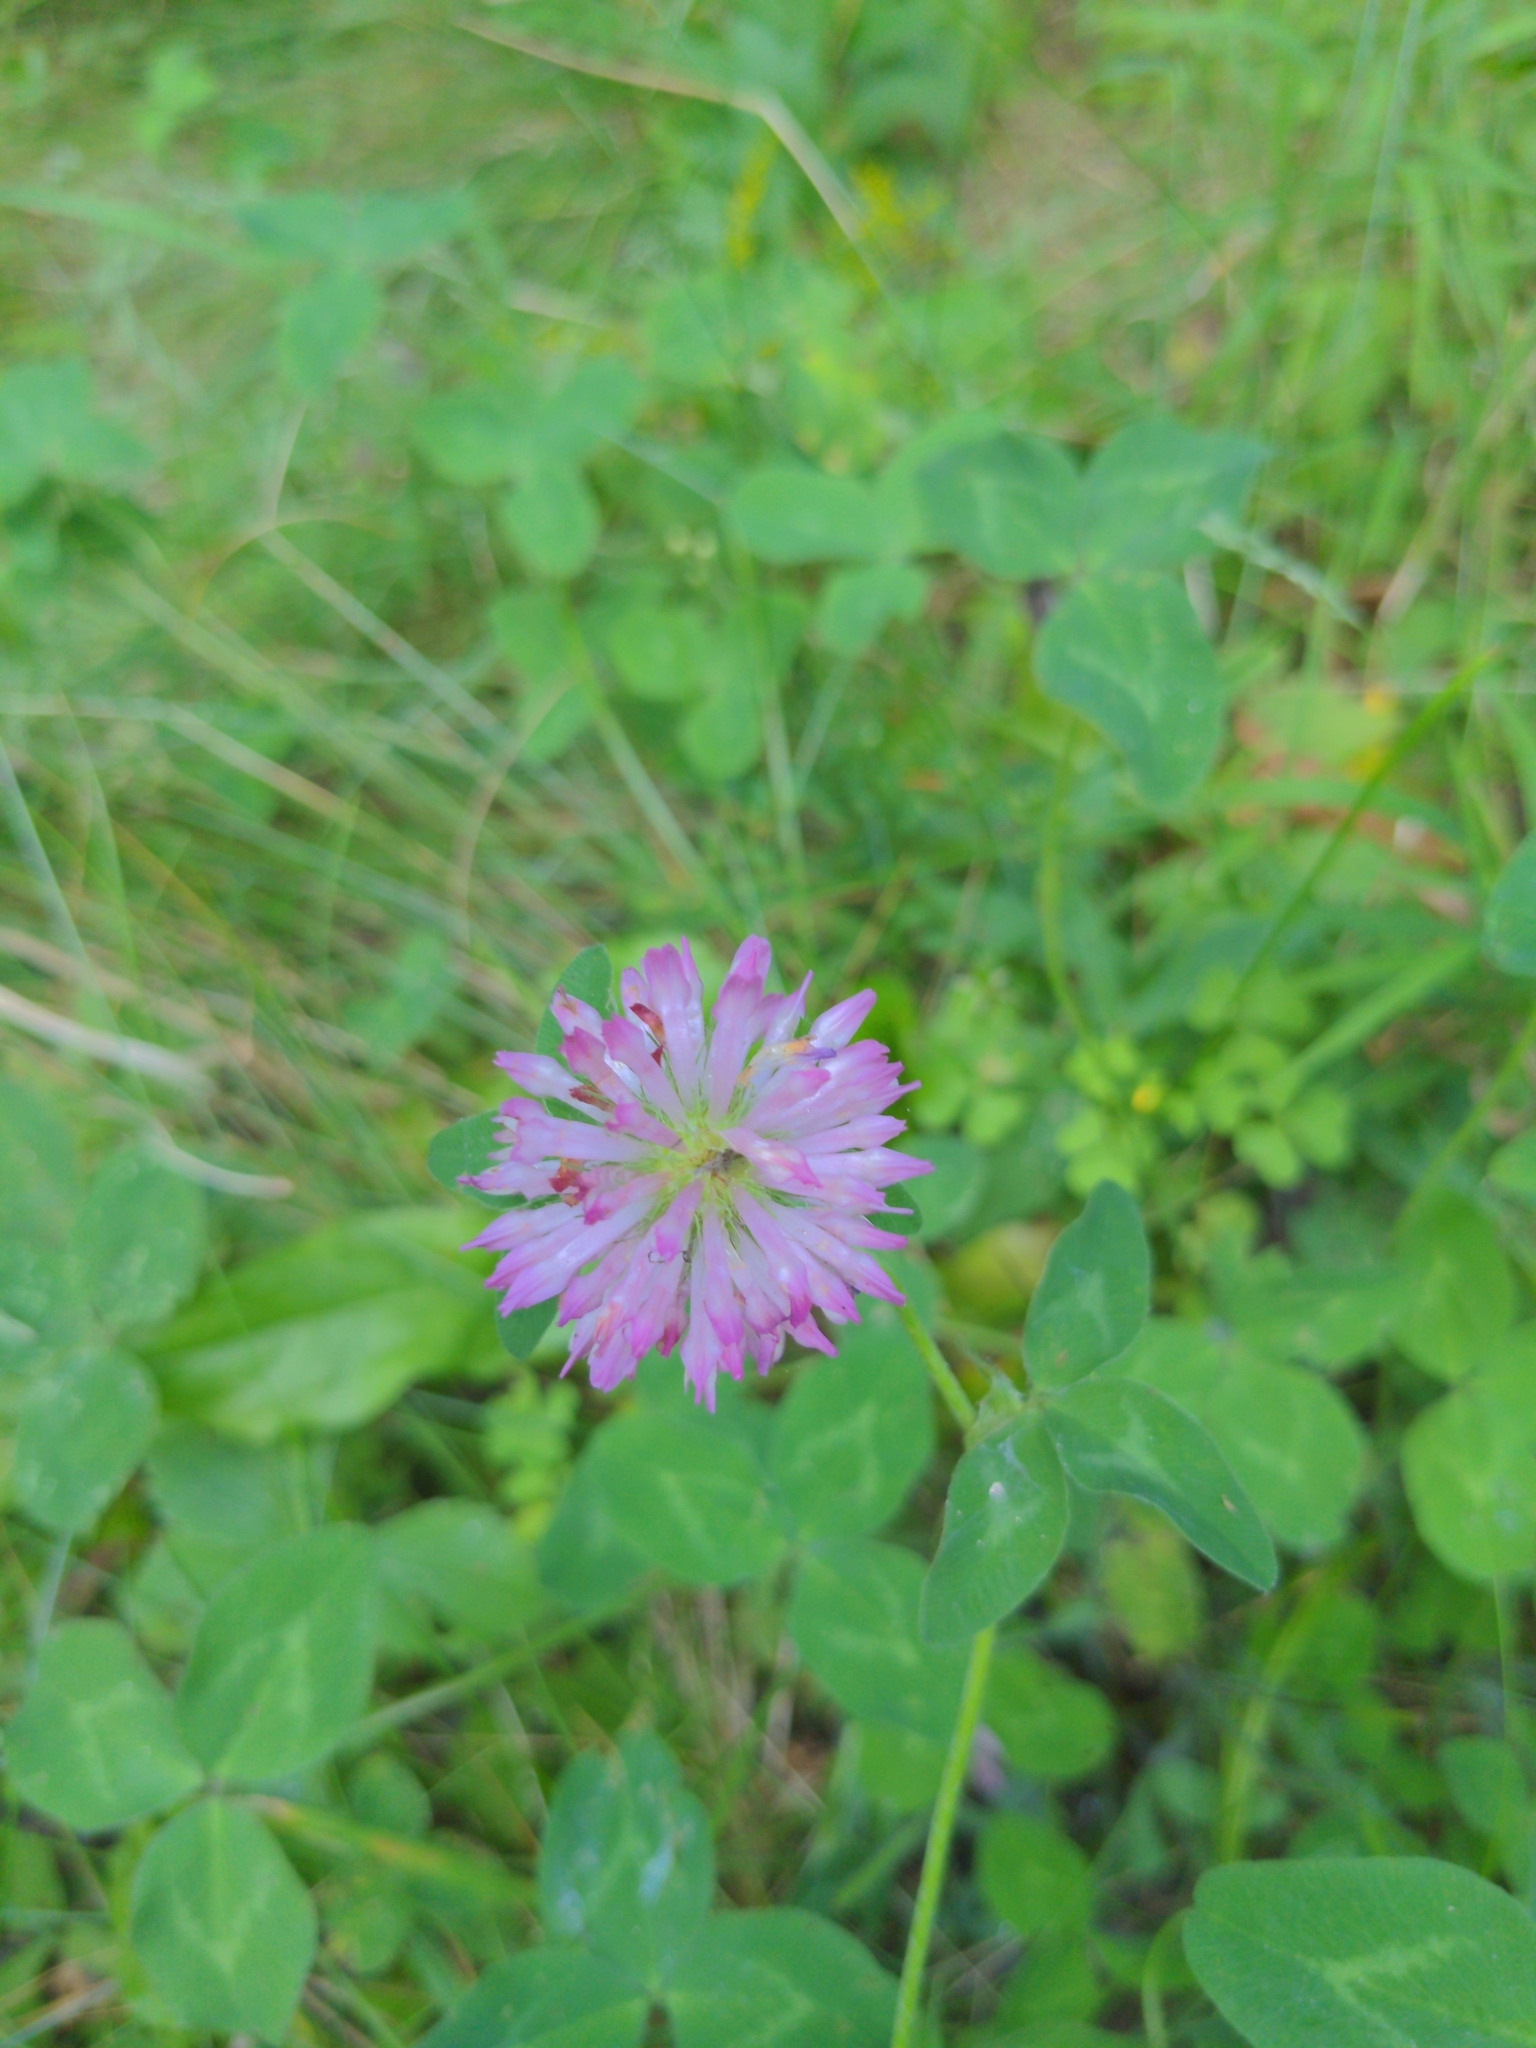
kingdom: Plantae
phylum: Tracheophyta
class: Magnoliopsida
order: Fabales
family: Fabaceae
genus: Trifolium
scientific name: Trifolium pratense
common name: Red clover
